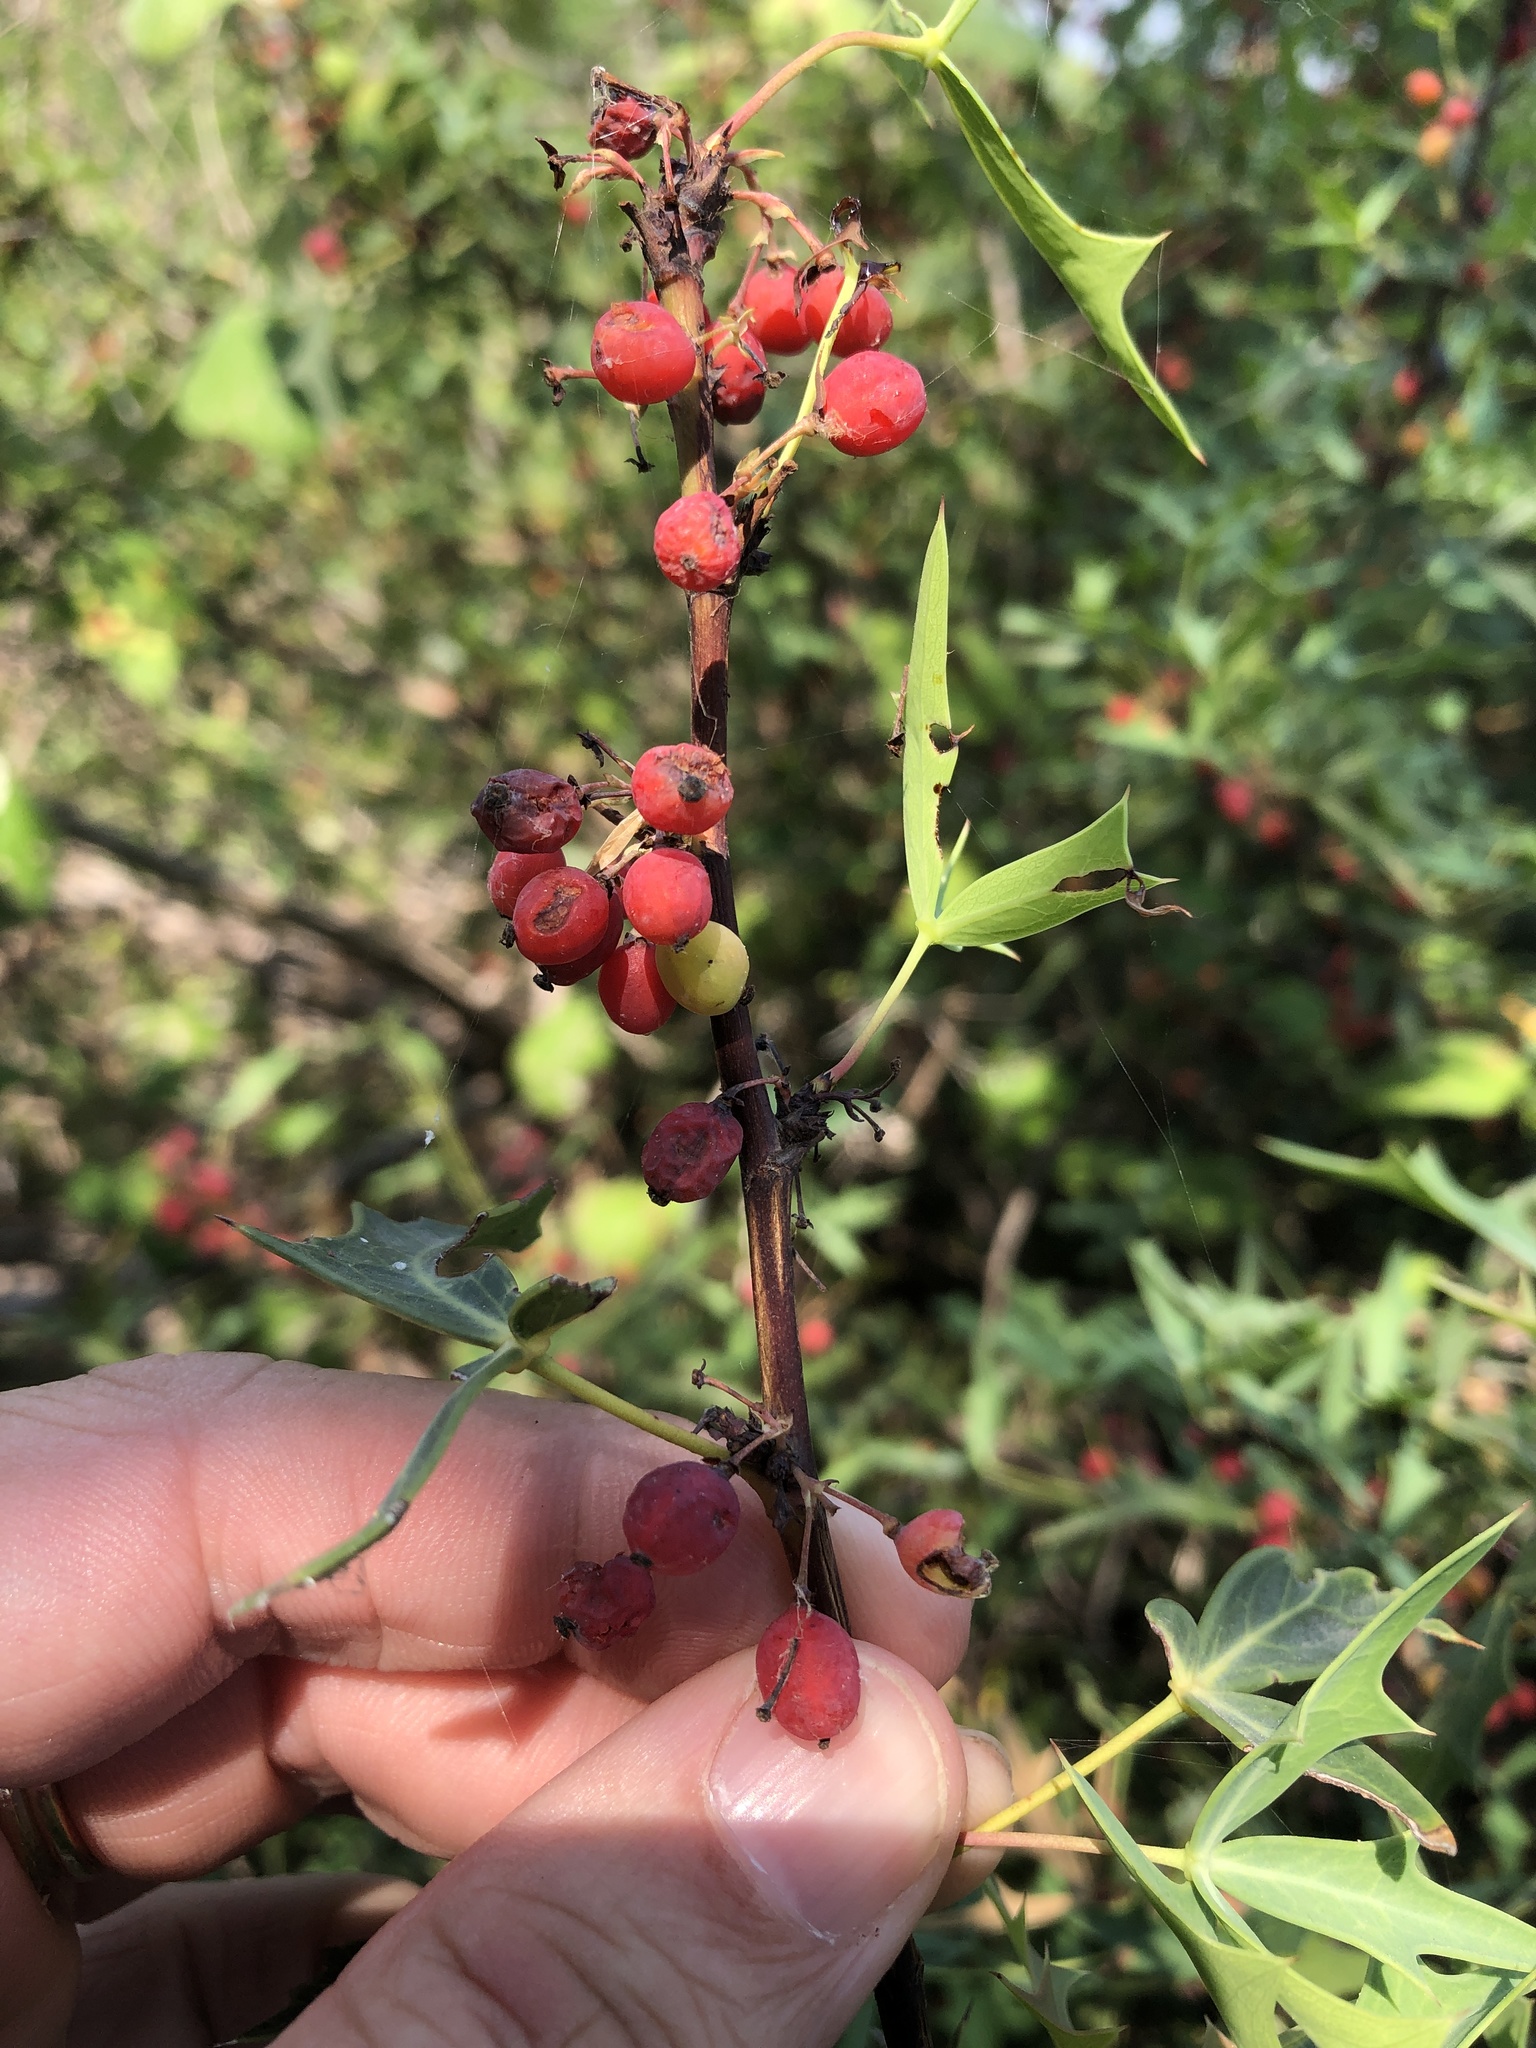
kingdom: Plantae
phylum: Tracheophyta
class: Magnoliopsida
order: Ranunculales
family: Berberidaceae
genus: Alloberberis
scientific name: Alloberberis trifoliolata
